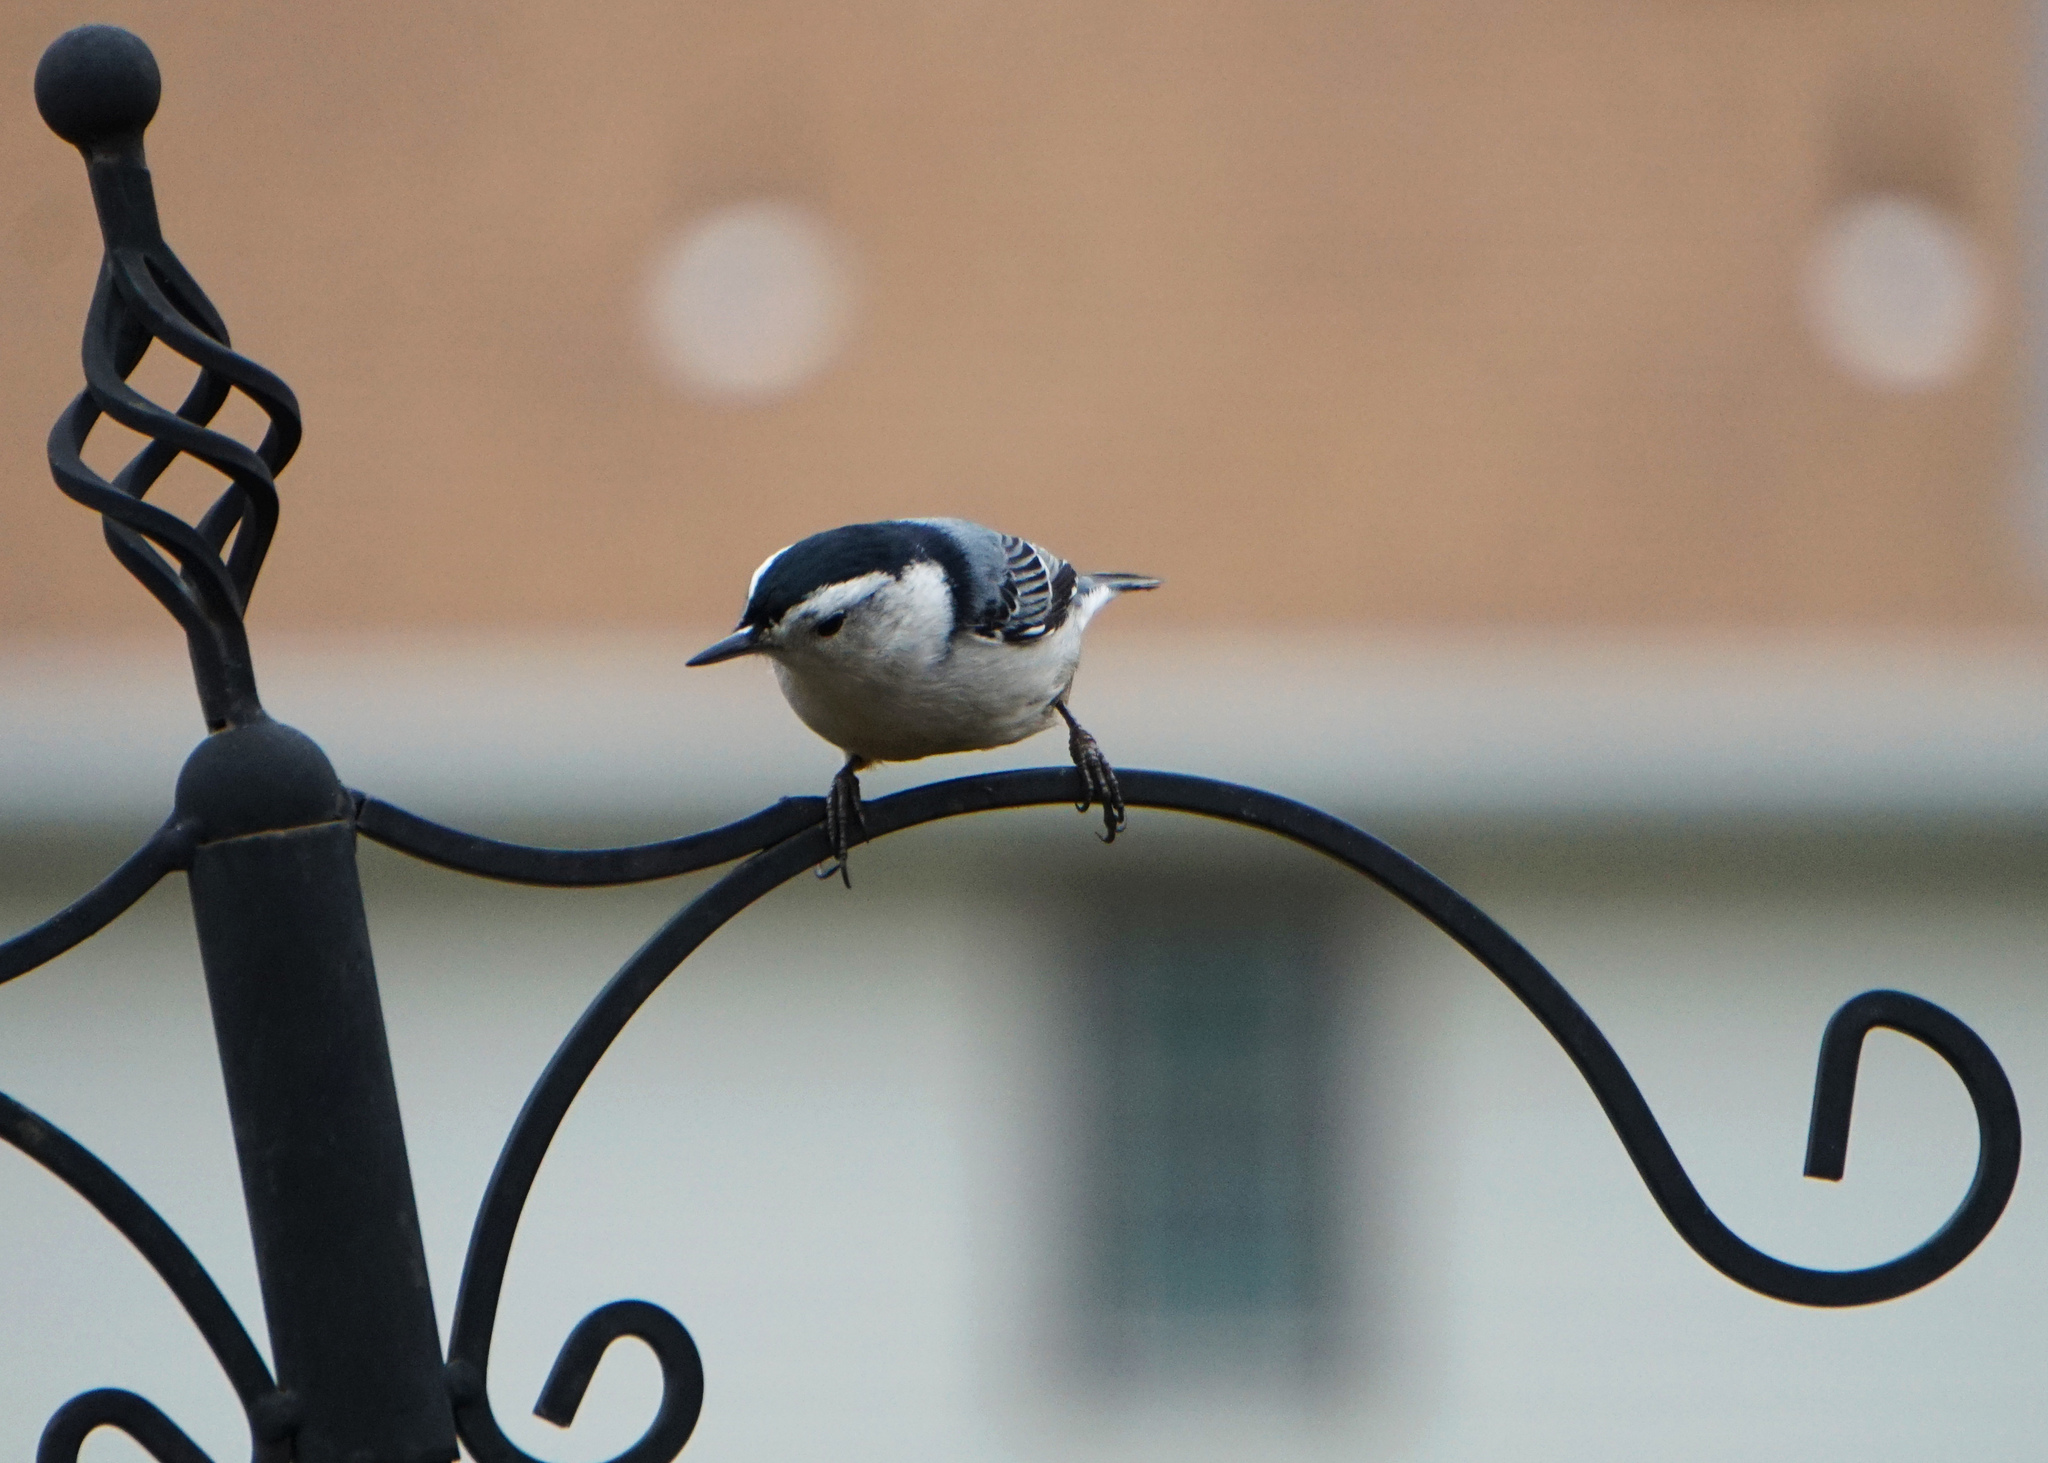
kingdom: Animalia
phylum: Chordata
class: Aves
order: Passeriformes
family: Sittidae
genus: Sitta
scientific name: Sitta carolinensis
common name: White-breasted nuthatch
